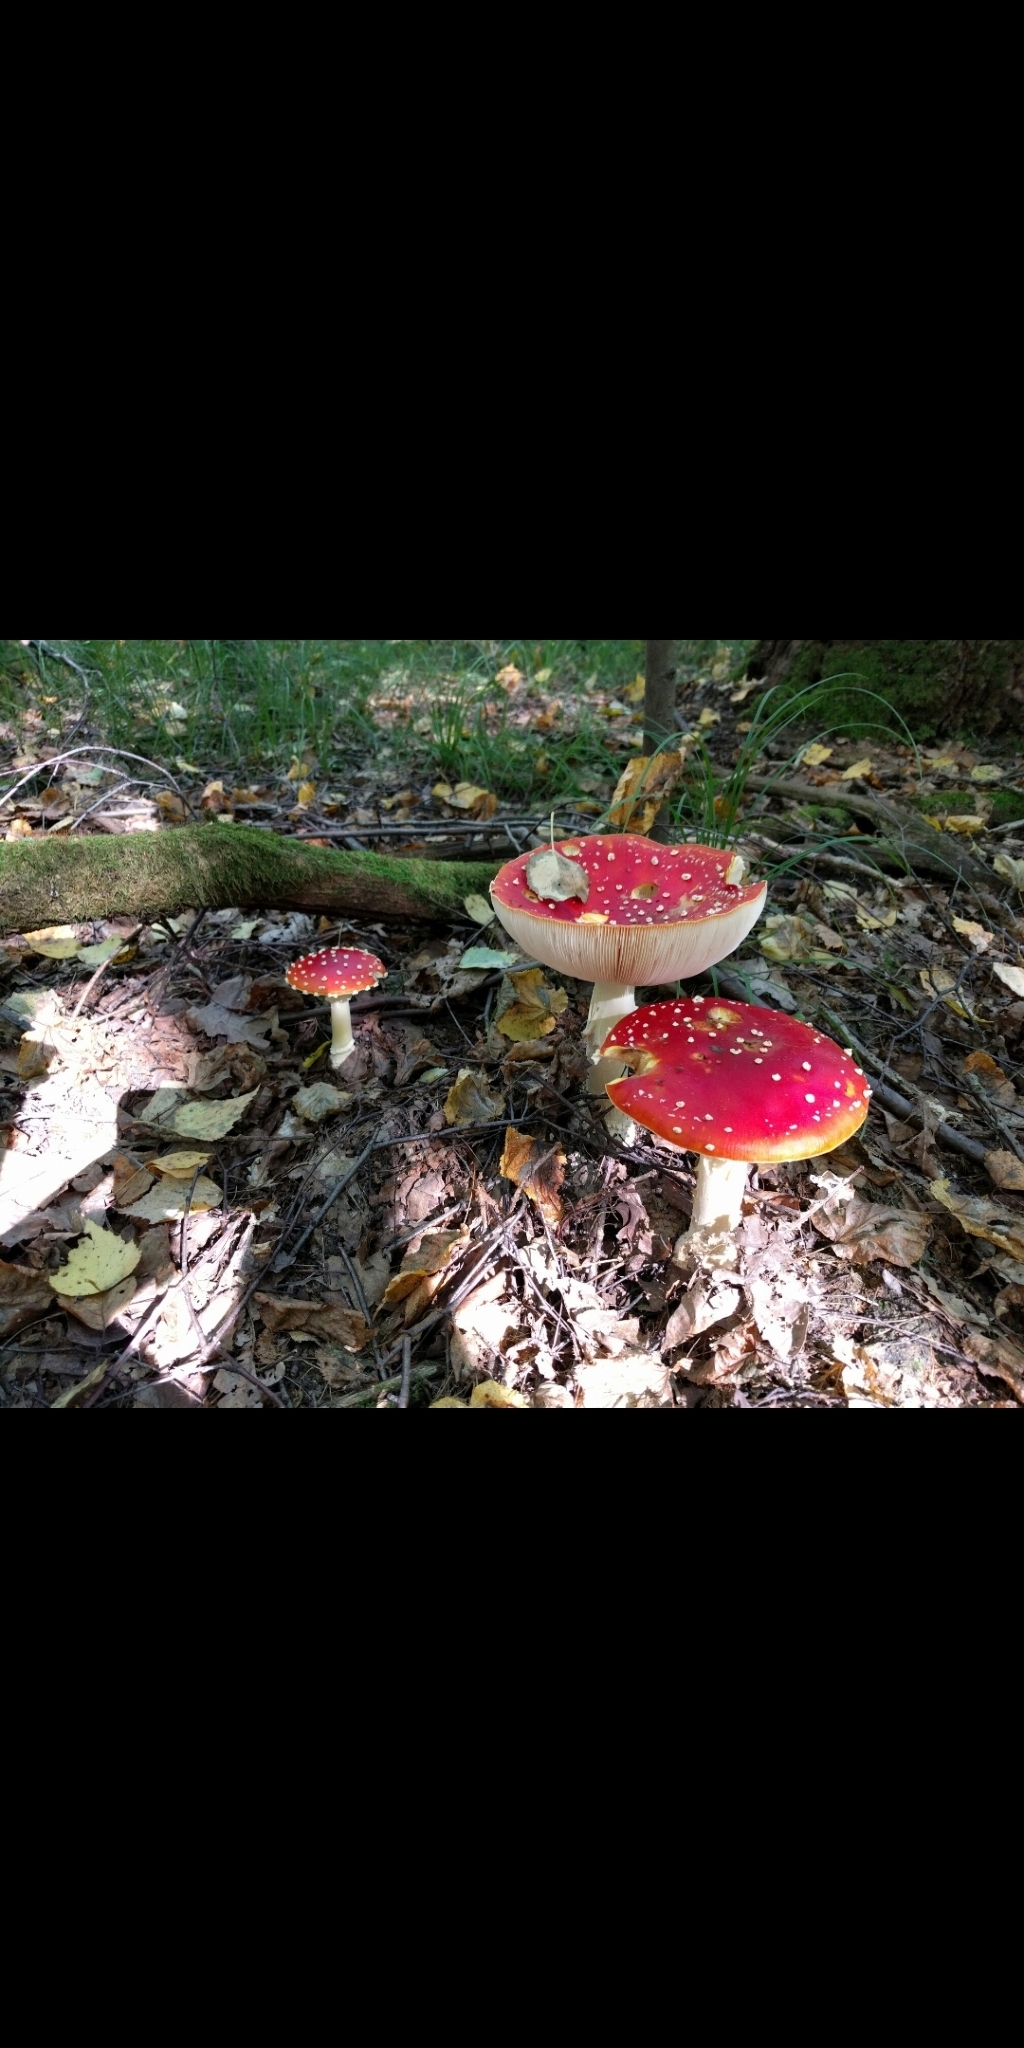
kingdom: Fungi
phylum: Basidiomycota
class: Agaricomycetes
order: Agaricales
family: Amanitaceae
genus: Amanita
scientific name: Amanita muscaria
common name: Fly agaric
